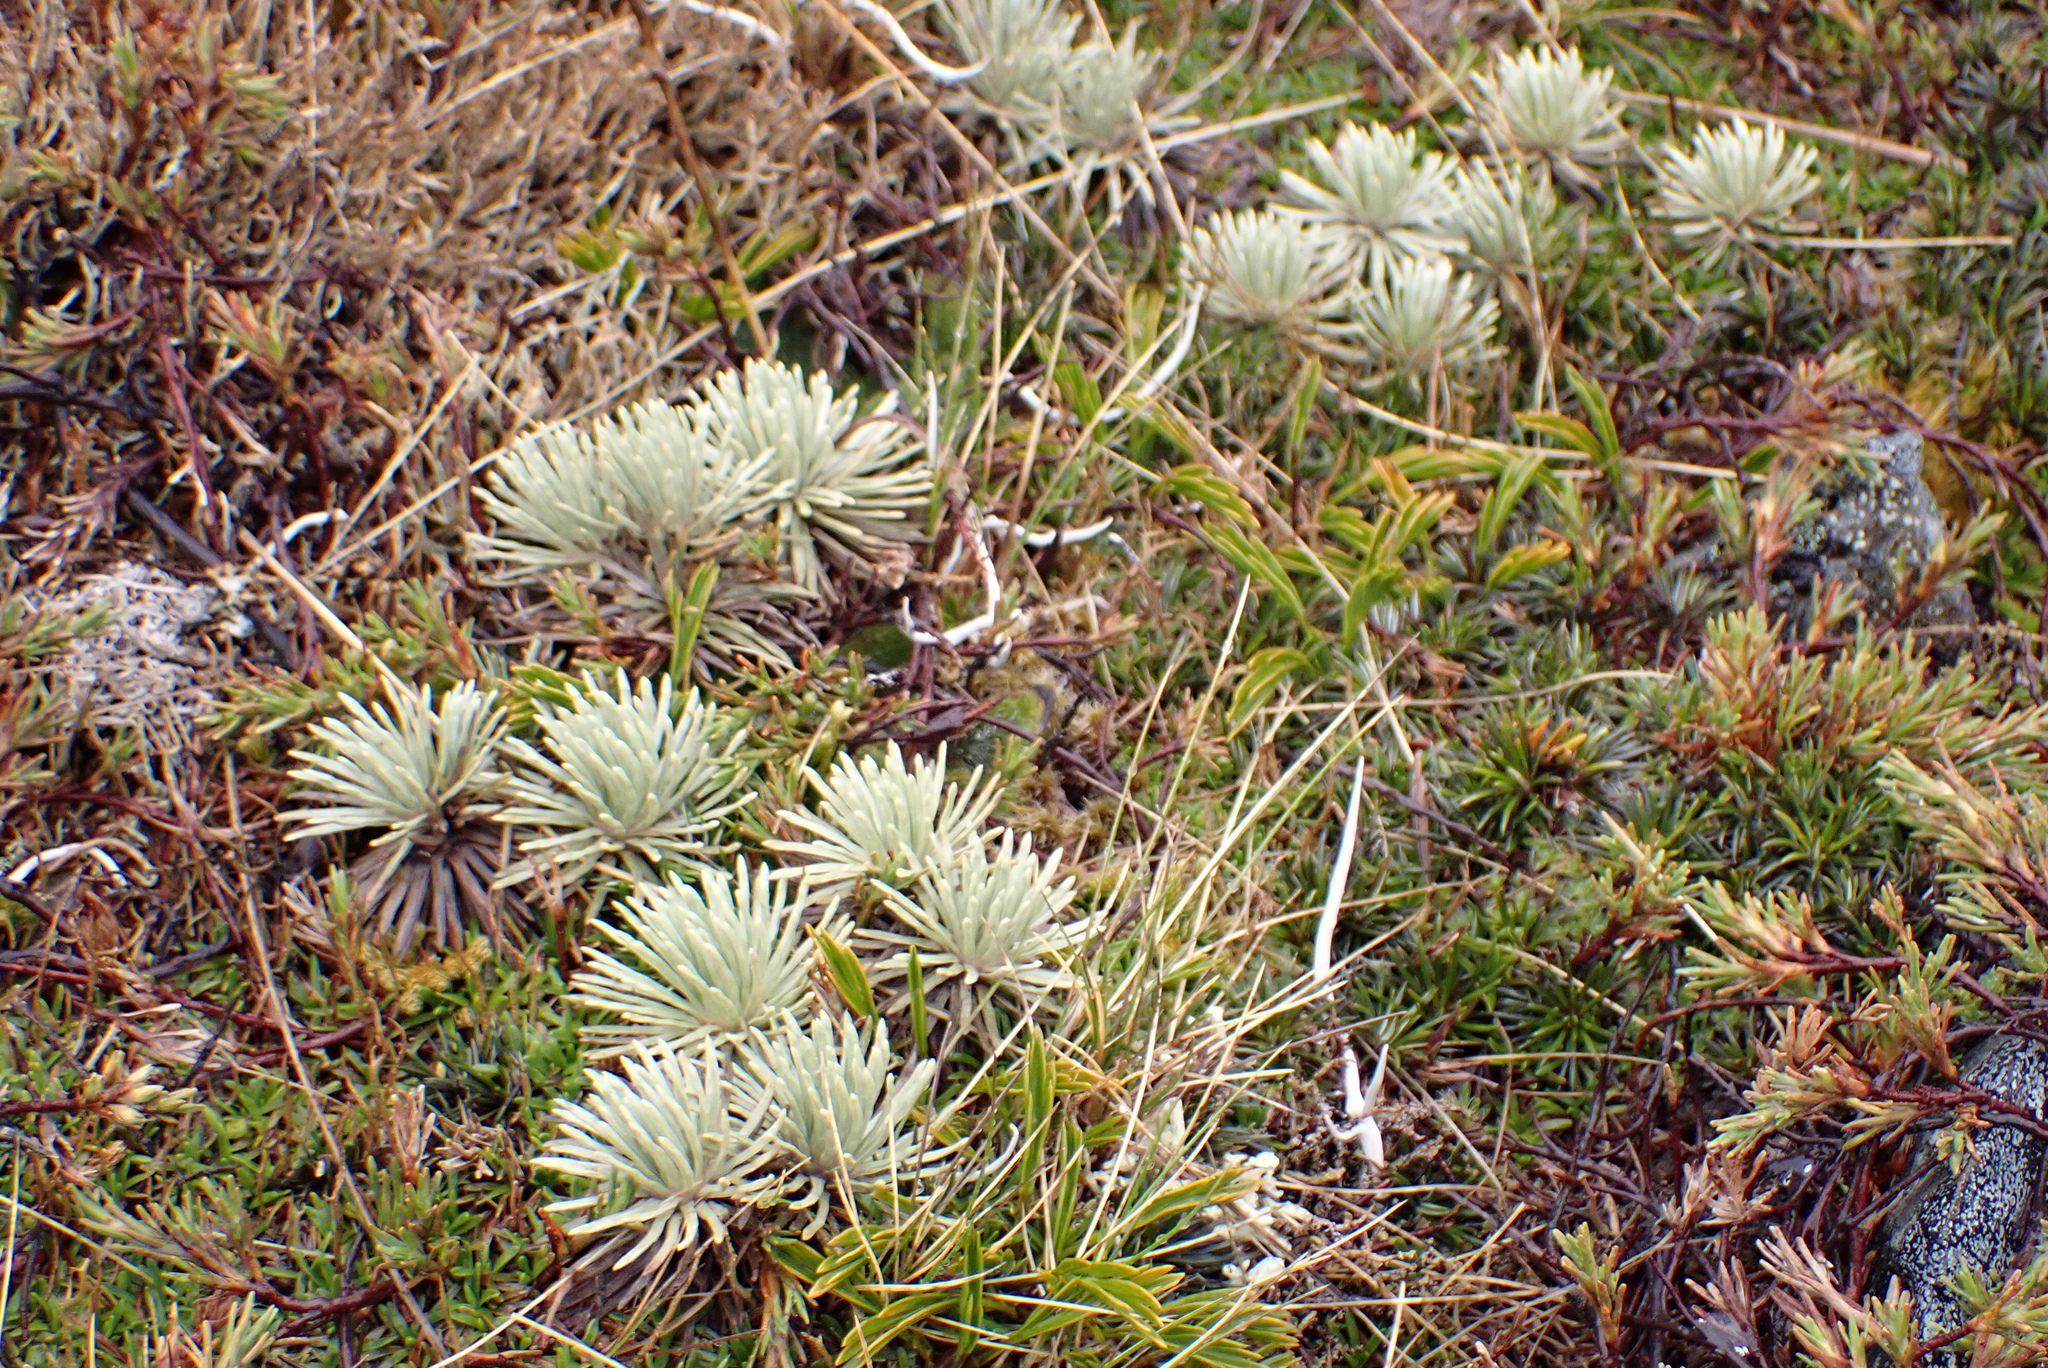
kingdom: Plantae
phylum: Tracheophyta
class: Magnoliopsida
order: Asterales
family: Asteraceae
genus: Celmisia
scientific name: Celmisia sessiliflora
